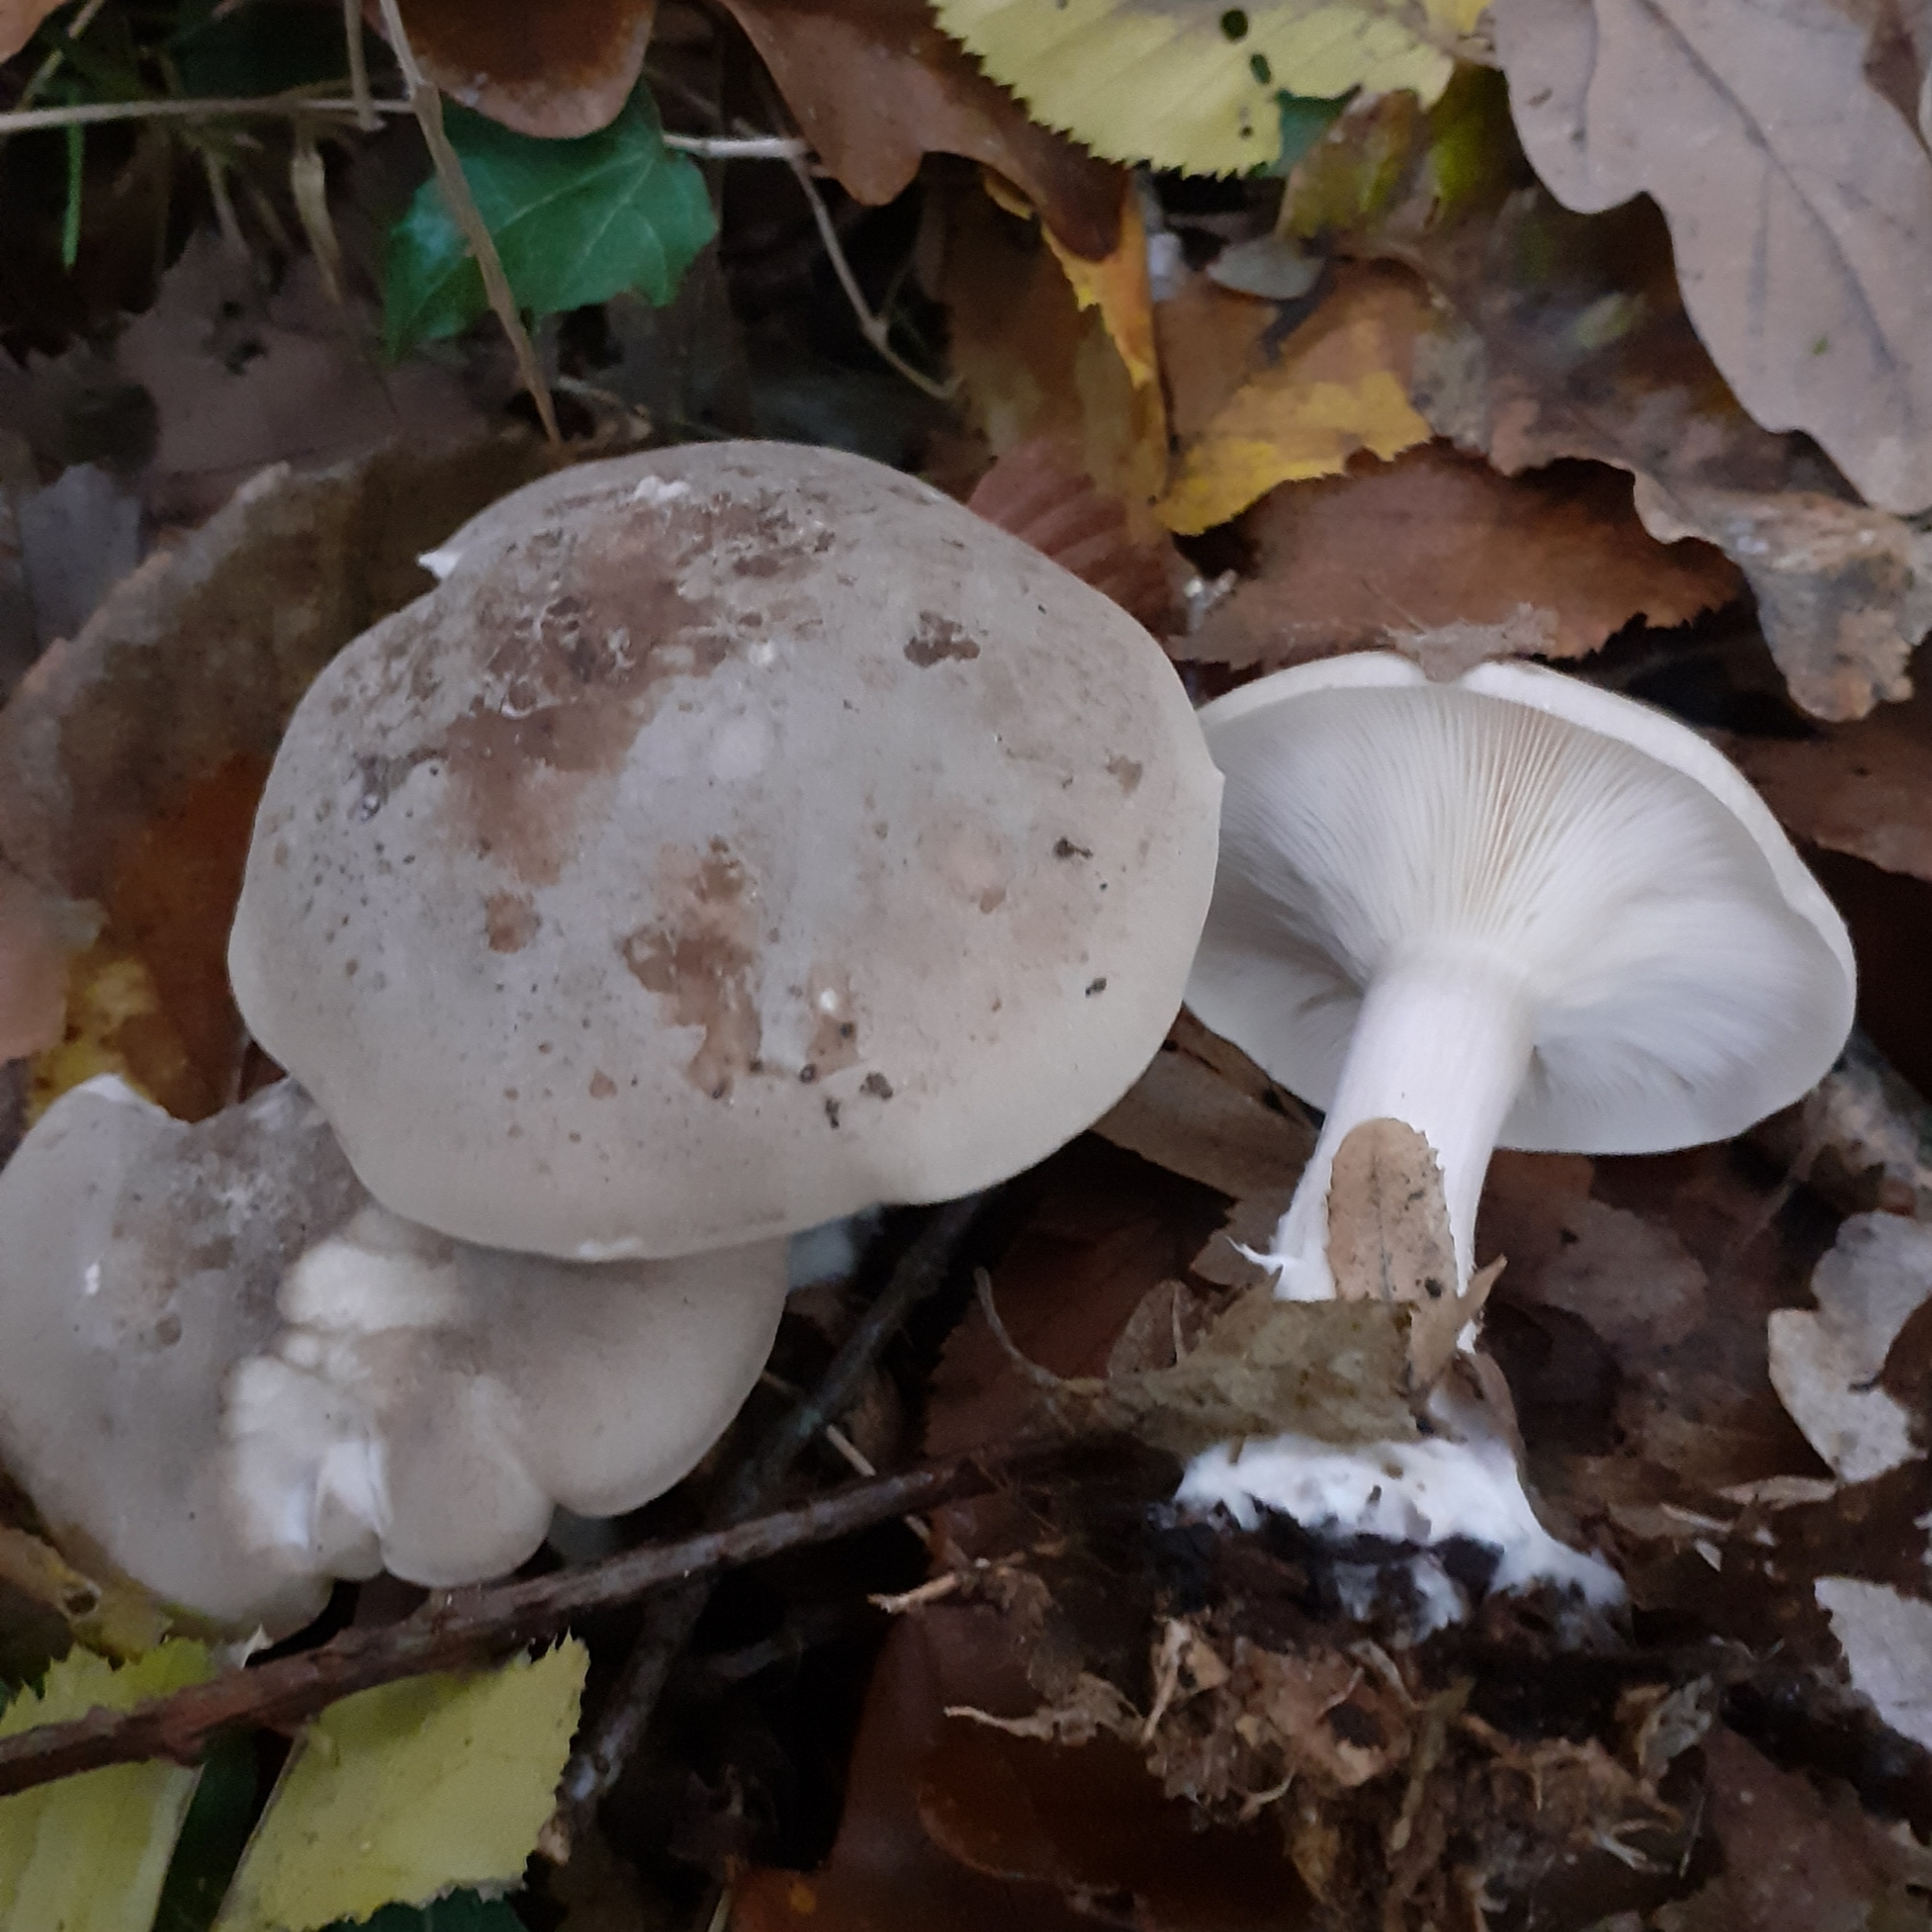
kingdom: Fungi
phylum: Basidiomycota
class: Agaricomycetes
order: Agaricales
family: Tricholomataceae
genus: Clitocybe
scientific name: Clitocybe nebularis
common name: Clouded agaric
